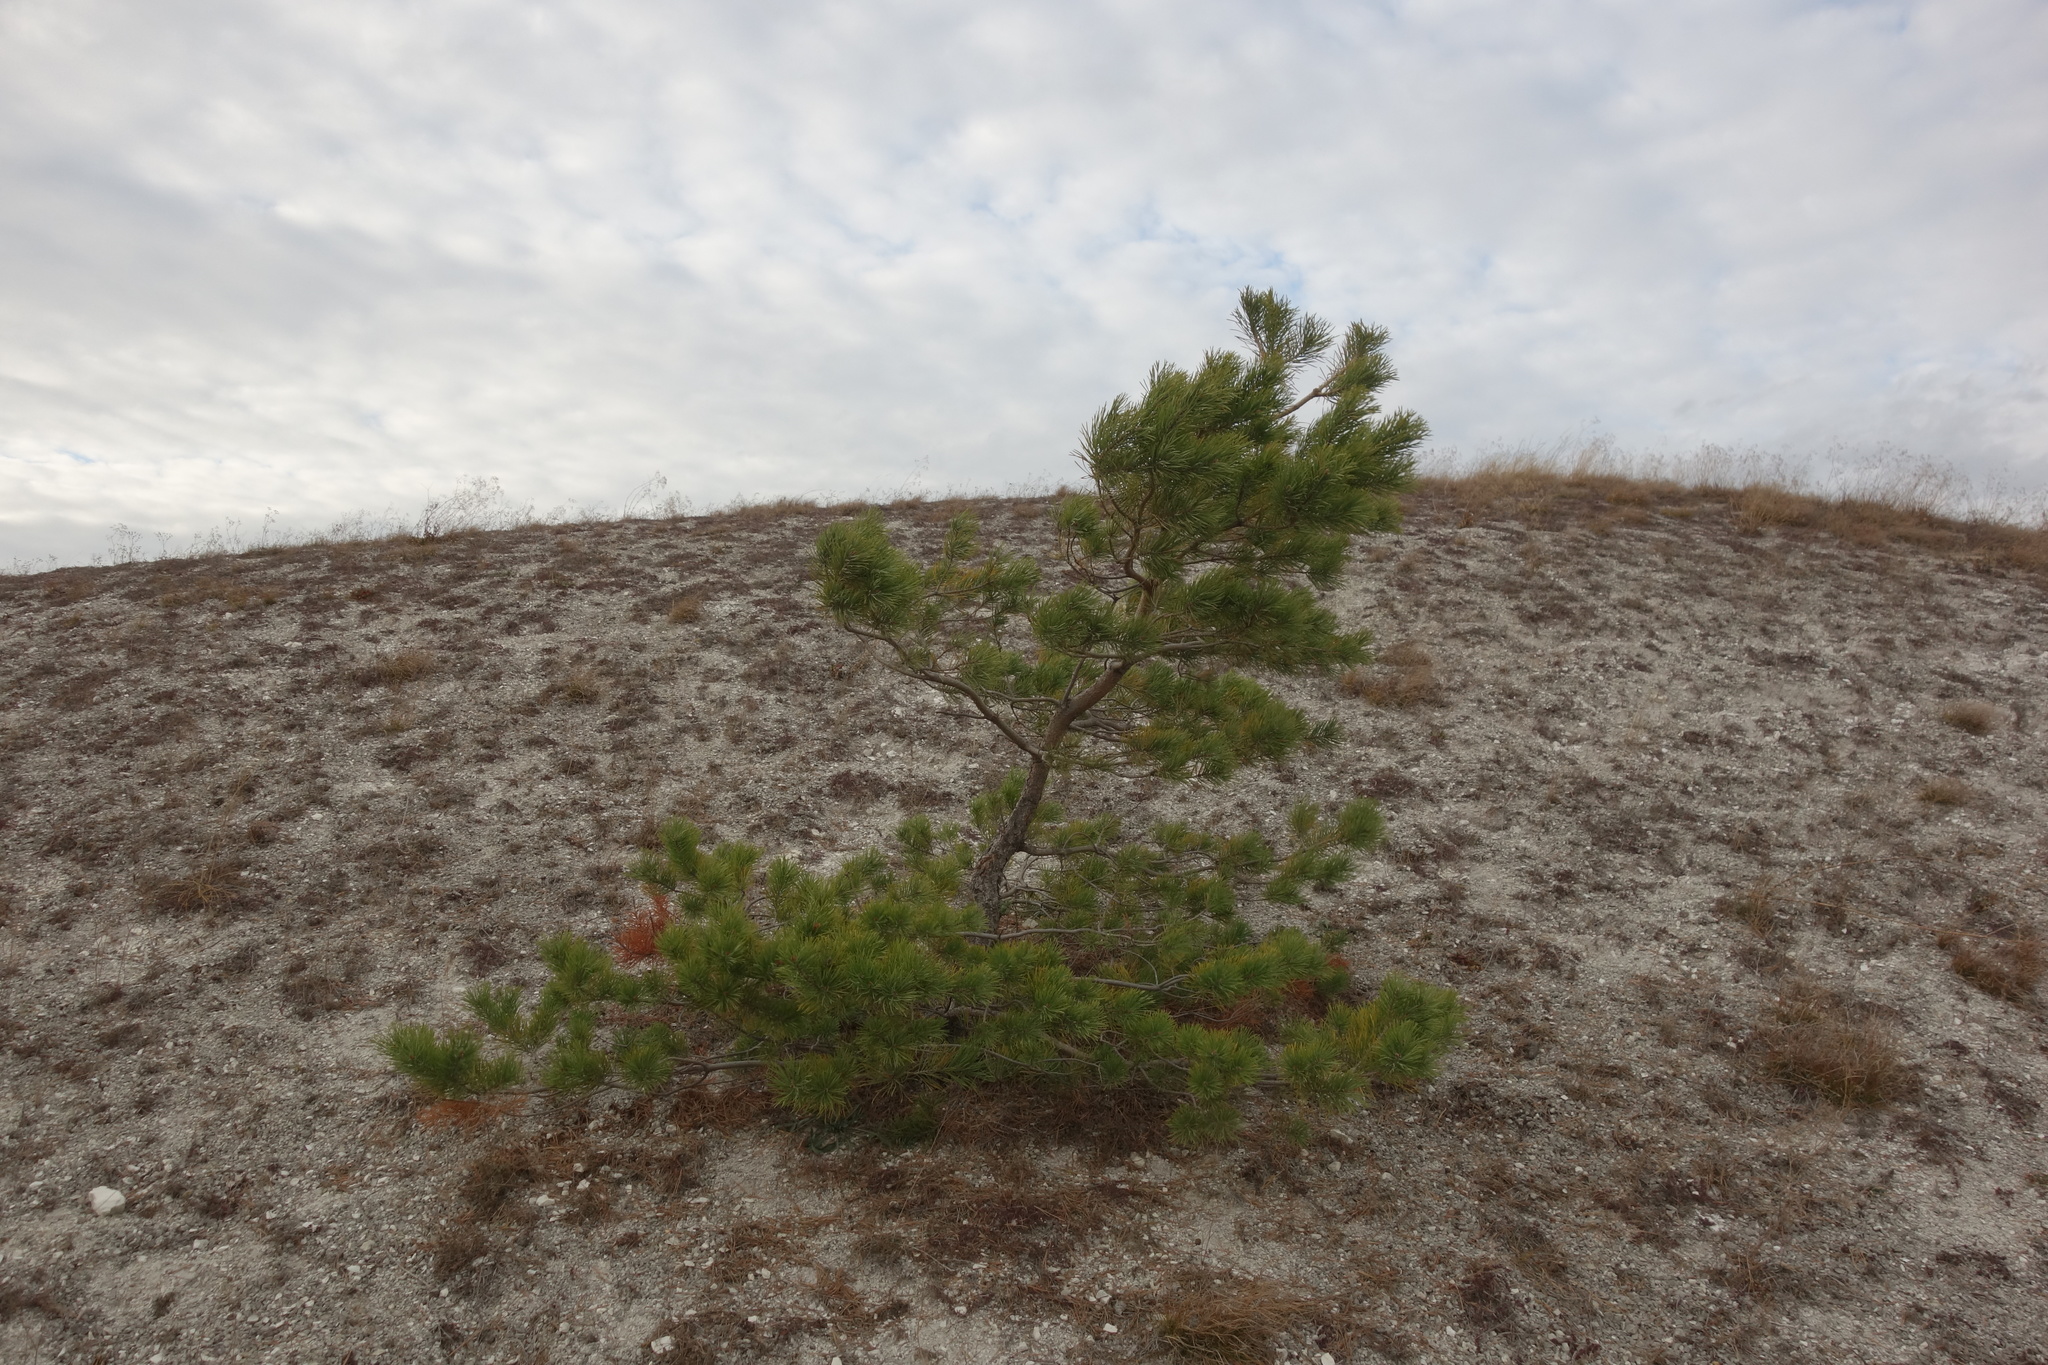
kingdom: Plantae
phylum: Tracheophyta
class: Pinopsida
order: Pinales
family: Pinaceae
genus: Pinus
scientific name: Pinus sylvestris
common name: Scots pine
